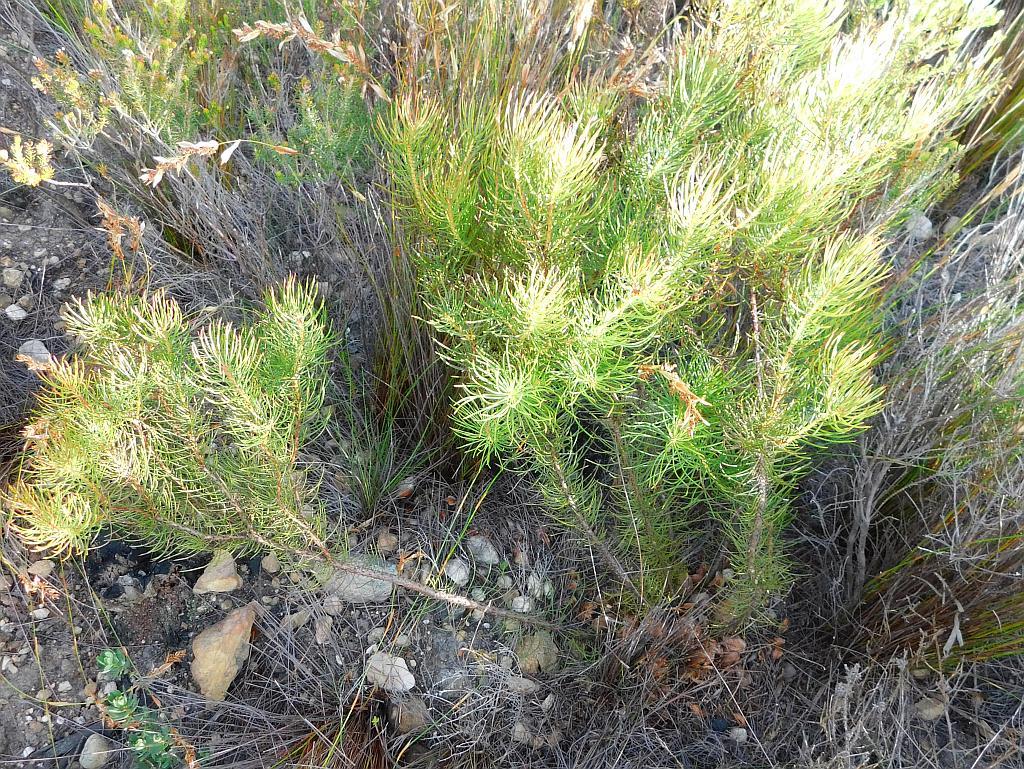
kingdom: Plantae
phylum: Tracheophyta
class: Magnoliopsida
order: Proteales
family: Proteaceae
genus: Protea
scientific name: Protea subulifolia
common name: Awl-leaf sugarbush
